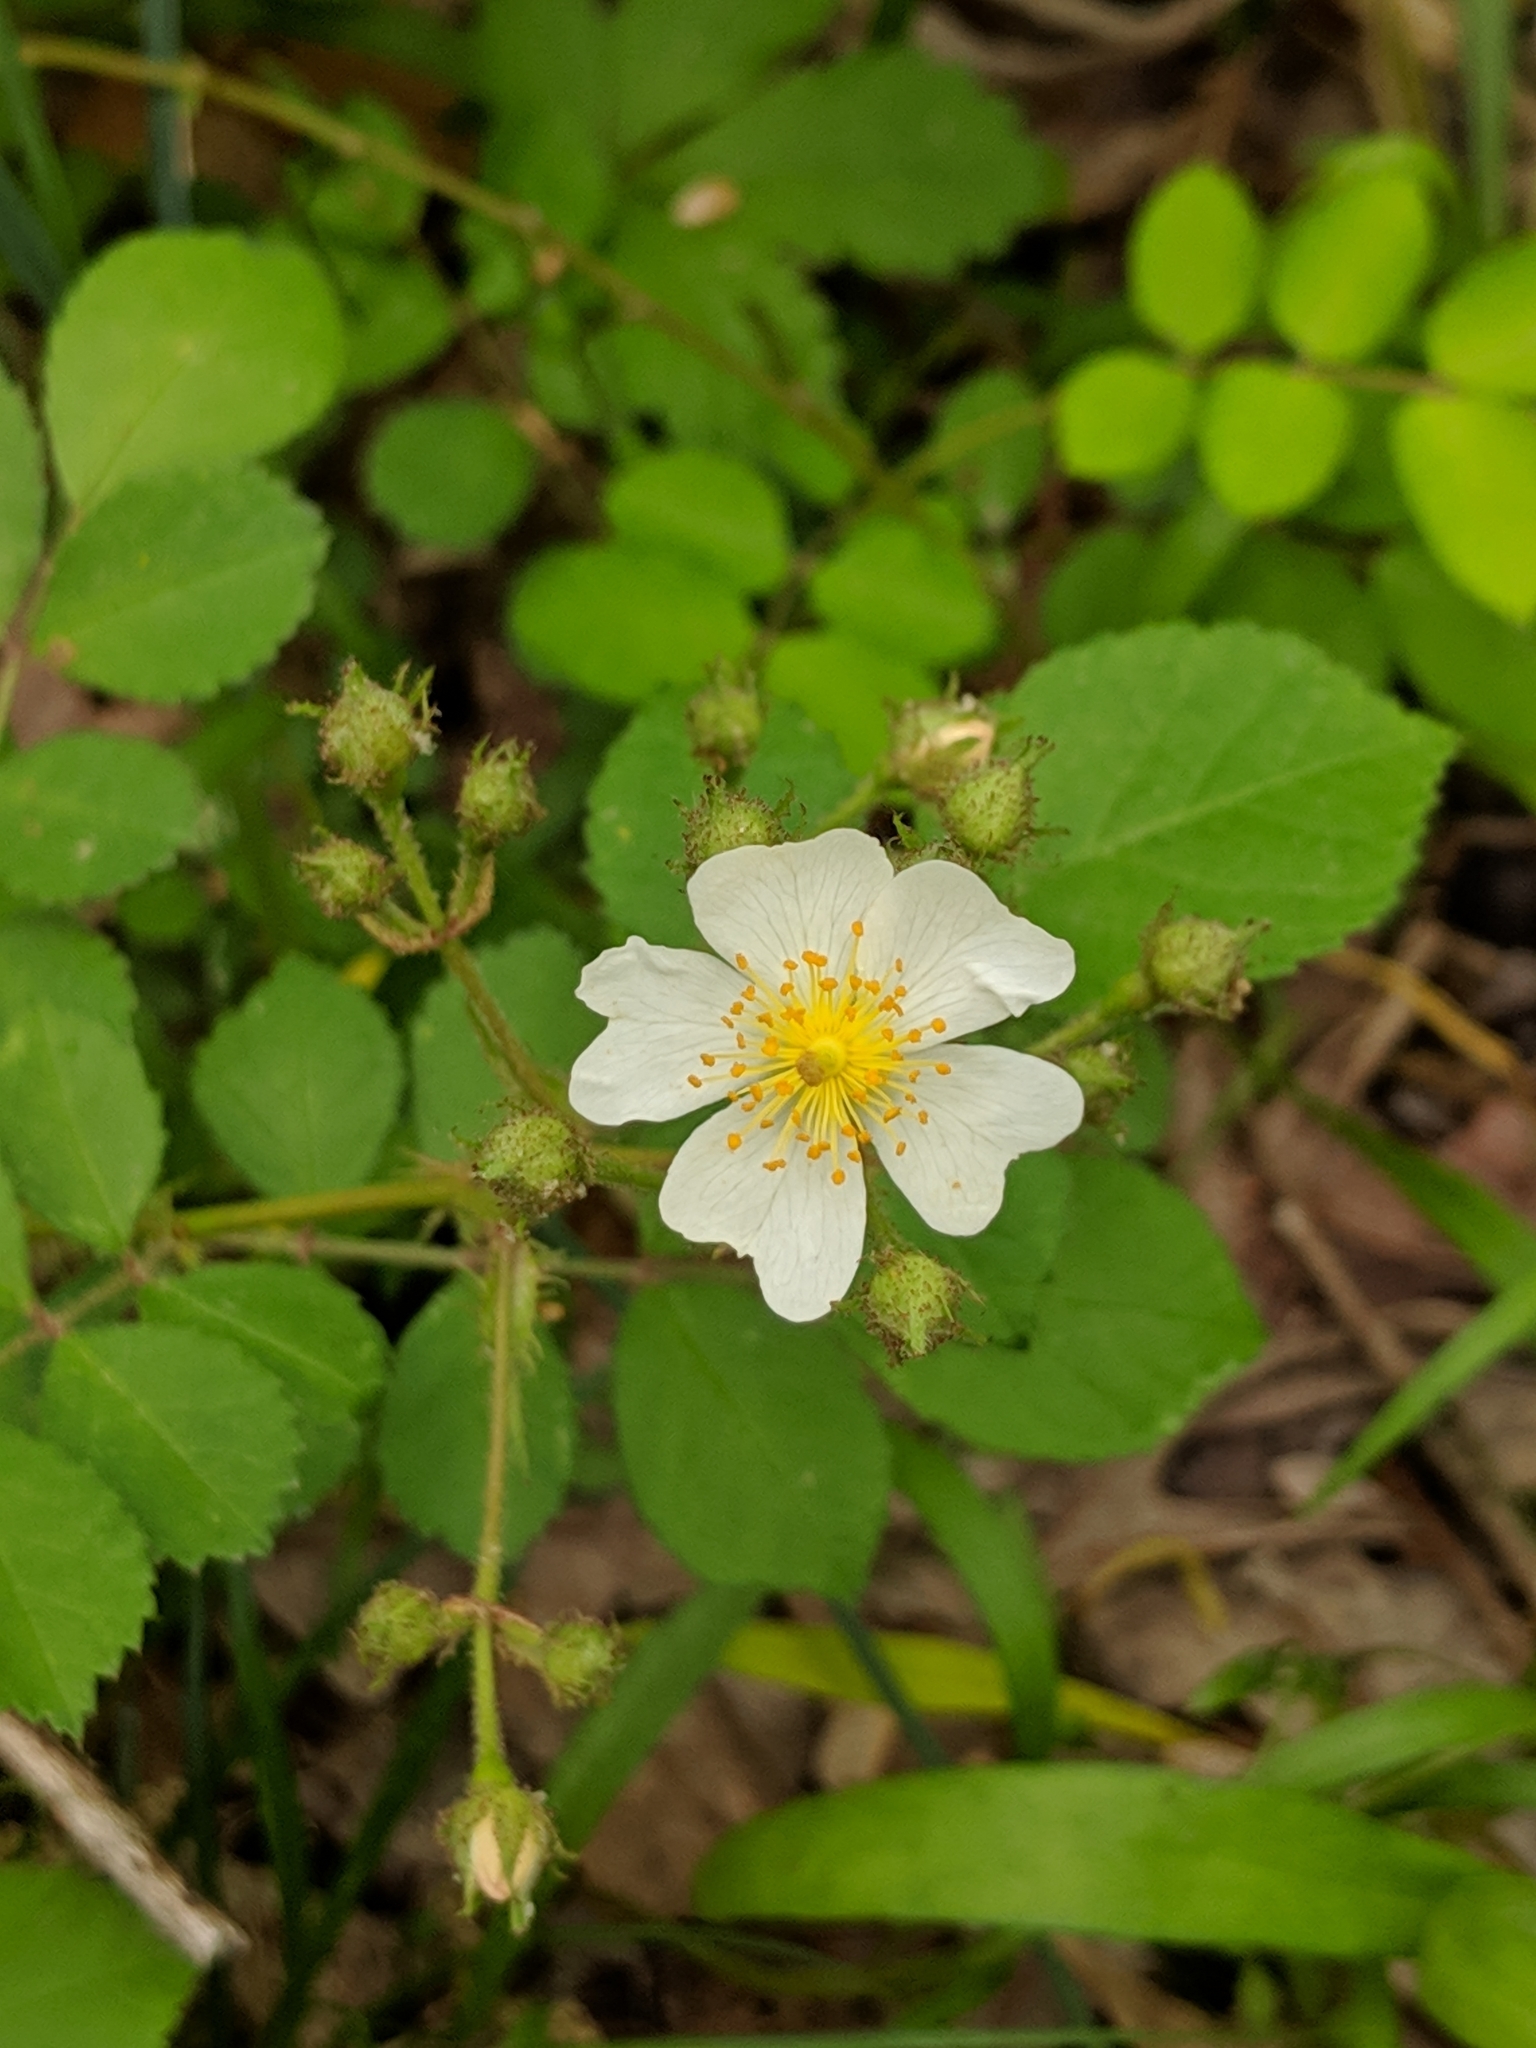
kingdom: Plantae
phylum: Tracheophyta
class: Magnoliopsida
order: Rosales
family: Rosaceae
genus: Rosa
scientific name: Rosa multiflora
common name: Multiflora rose
